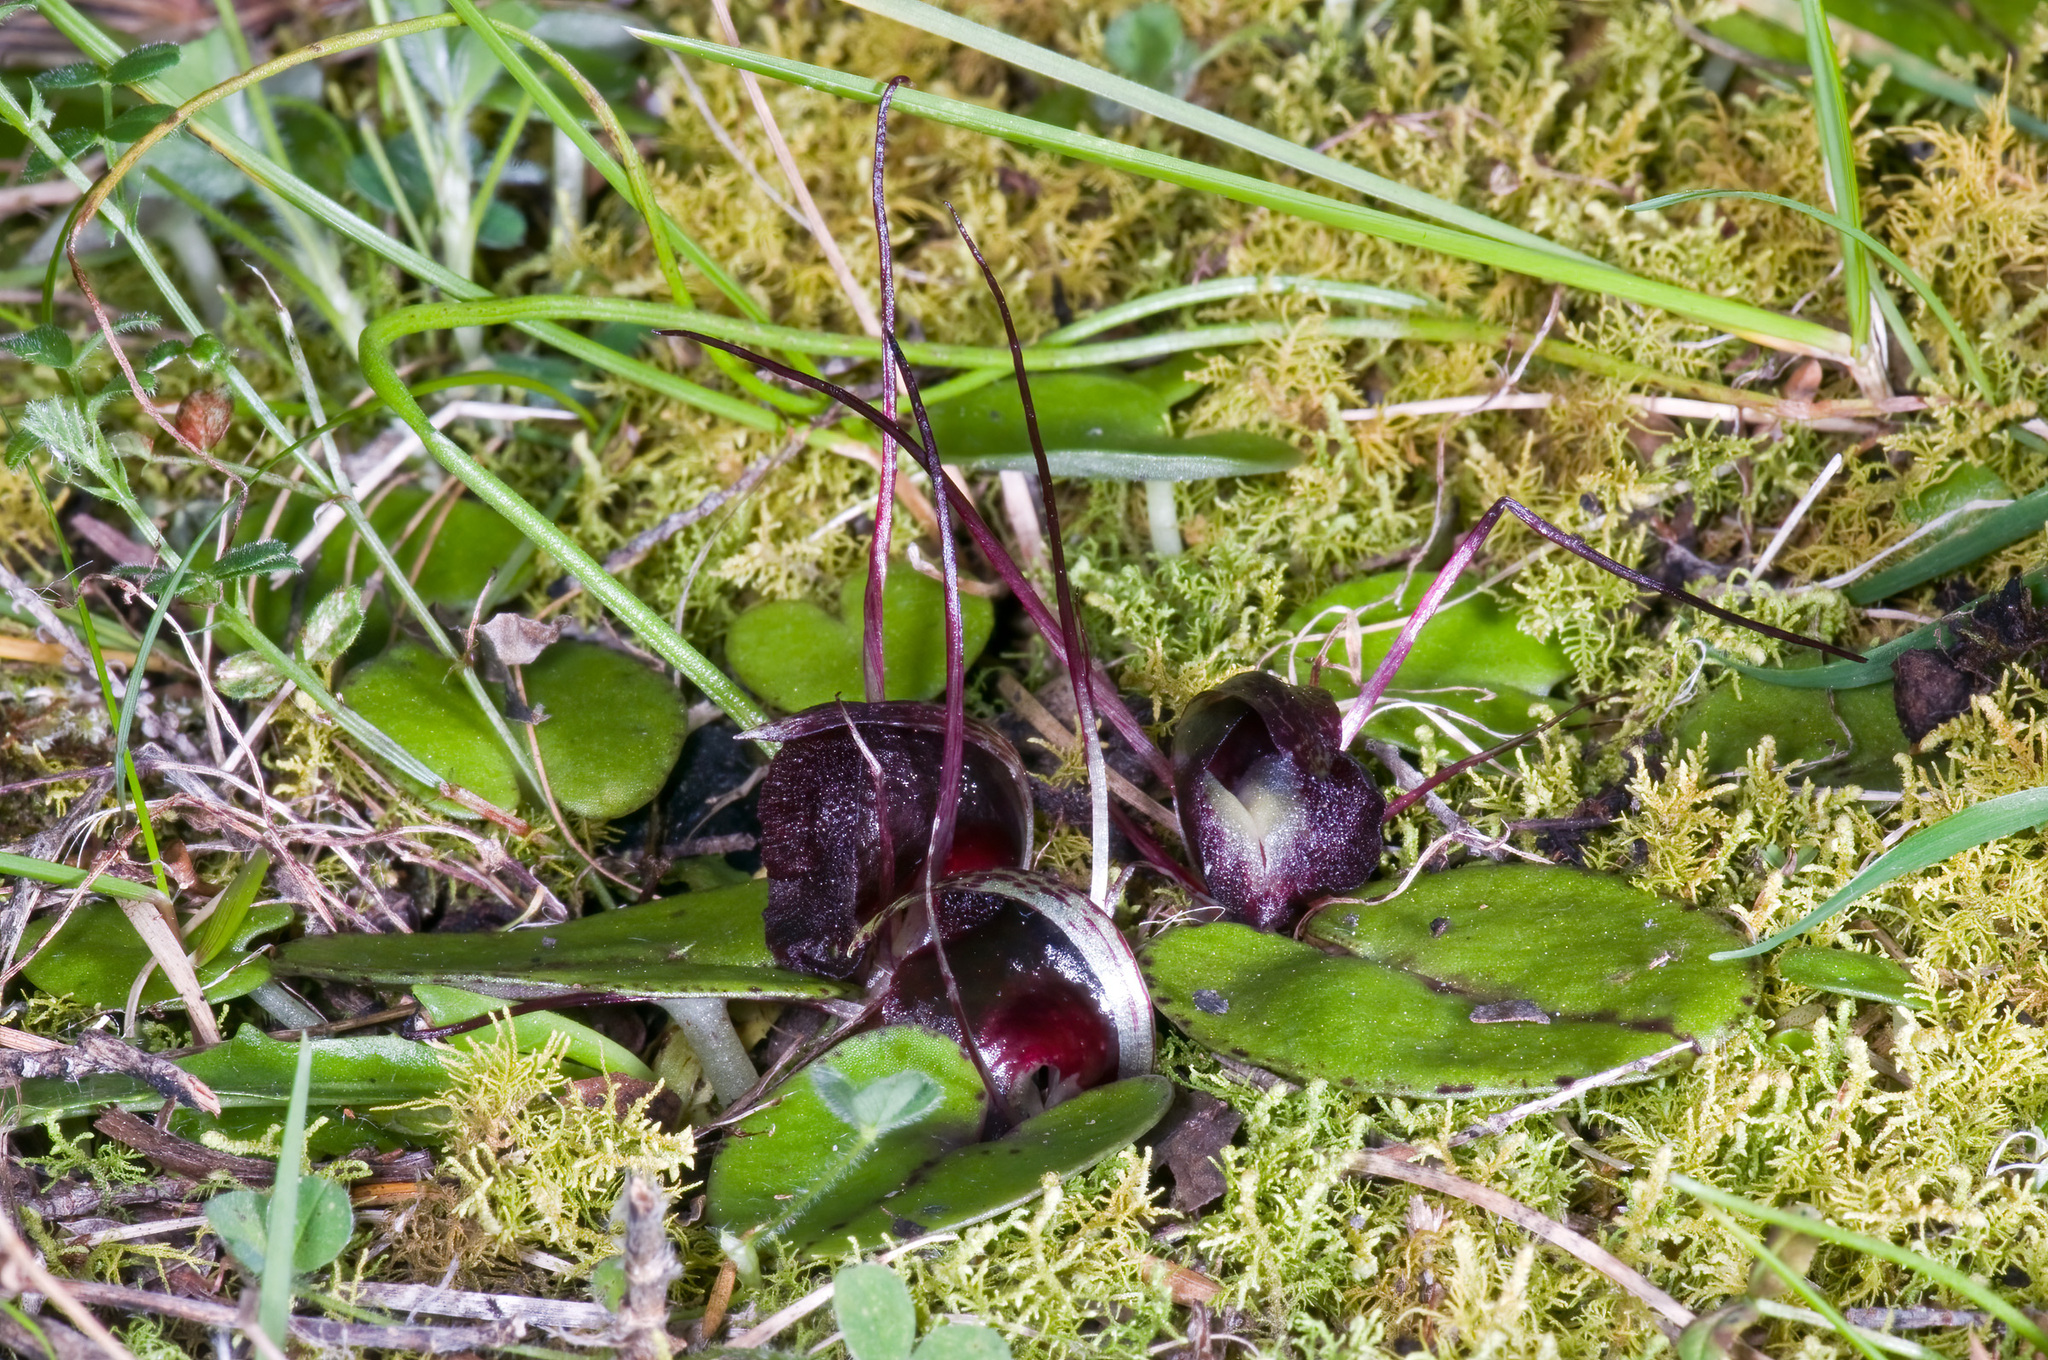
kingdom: Plantae
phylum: Tracheophyta
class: Liliopsida
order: Asparagales
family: Orchidaceae
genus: Corybas
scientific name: Corybas macranthus
